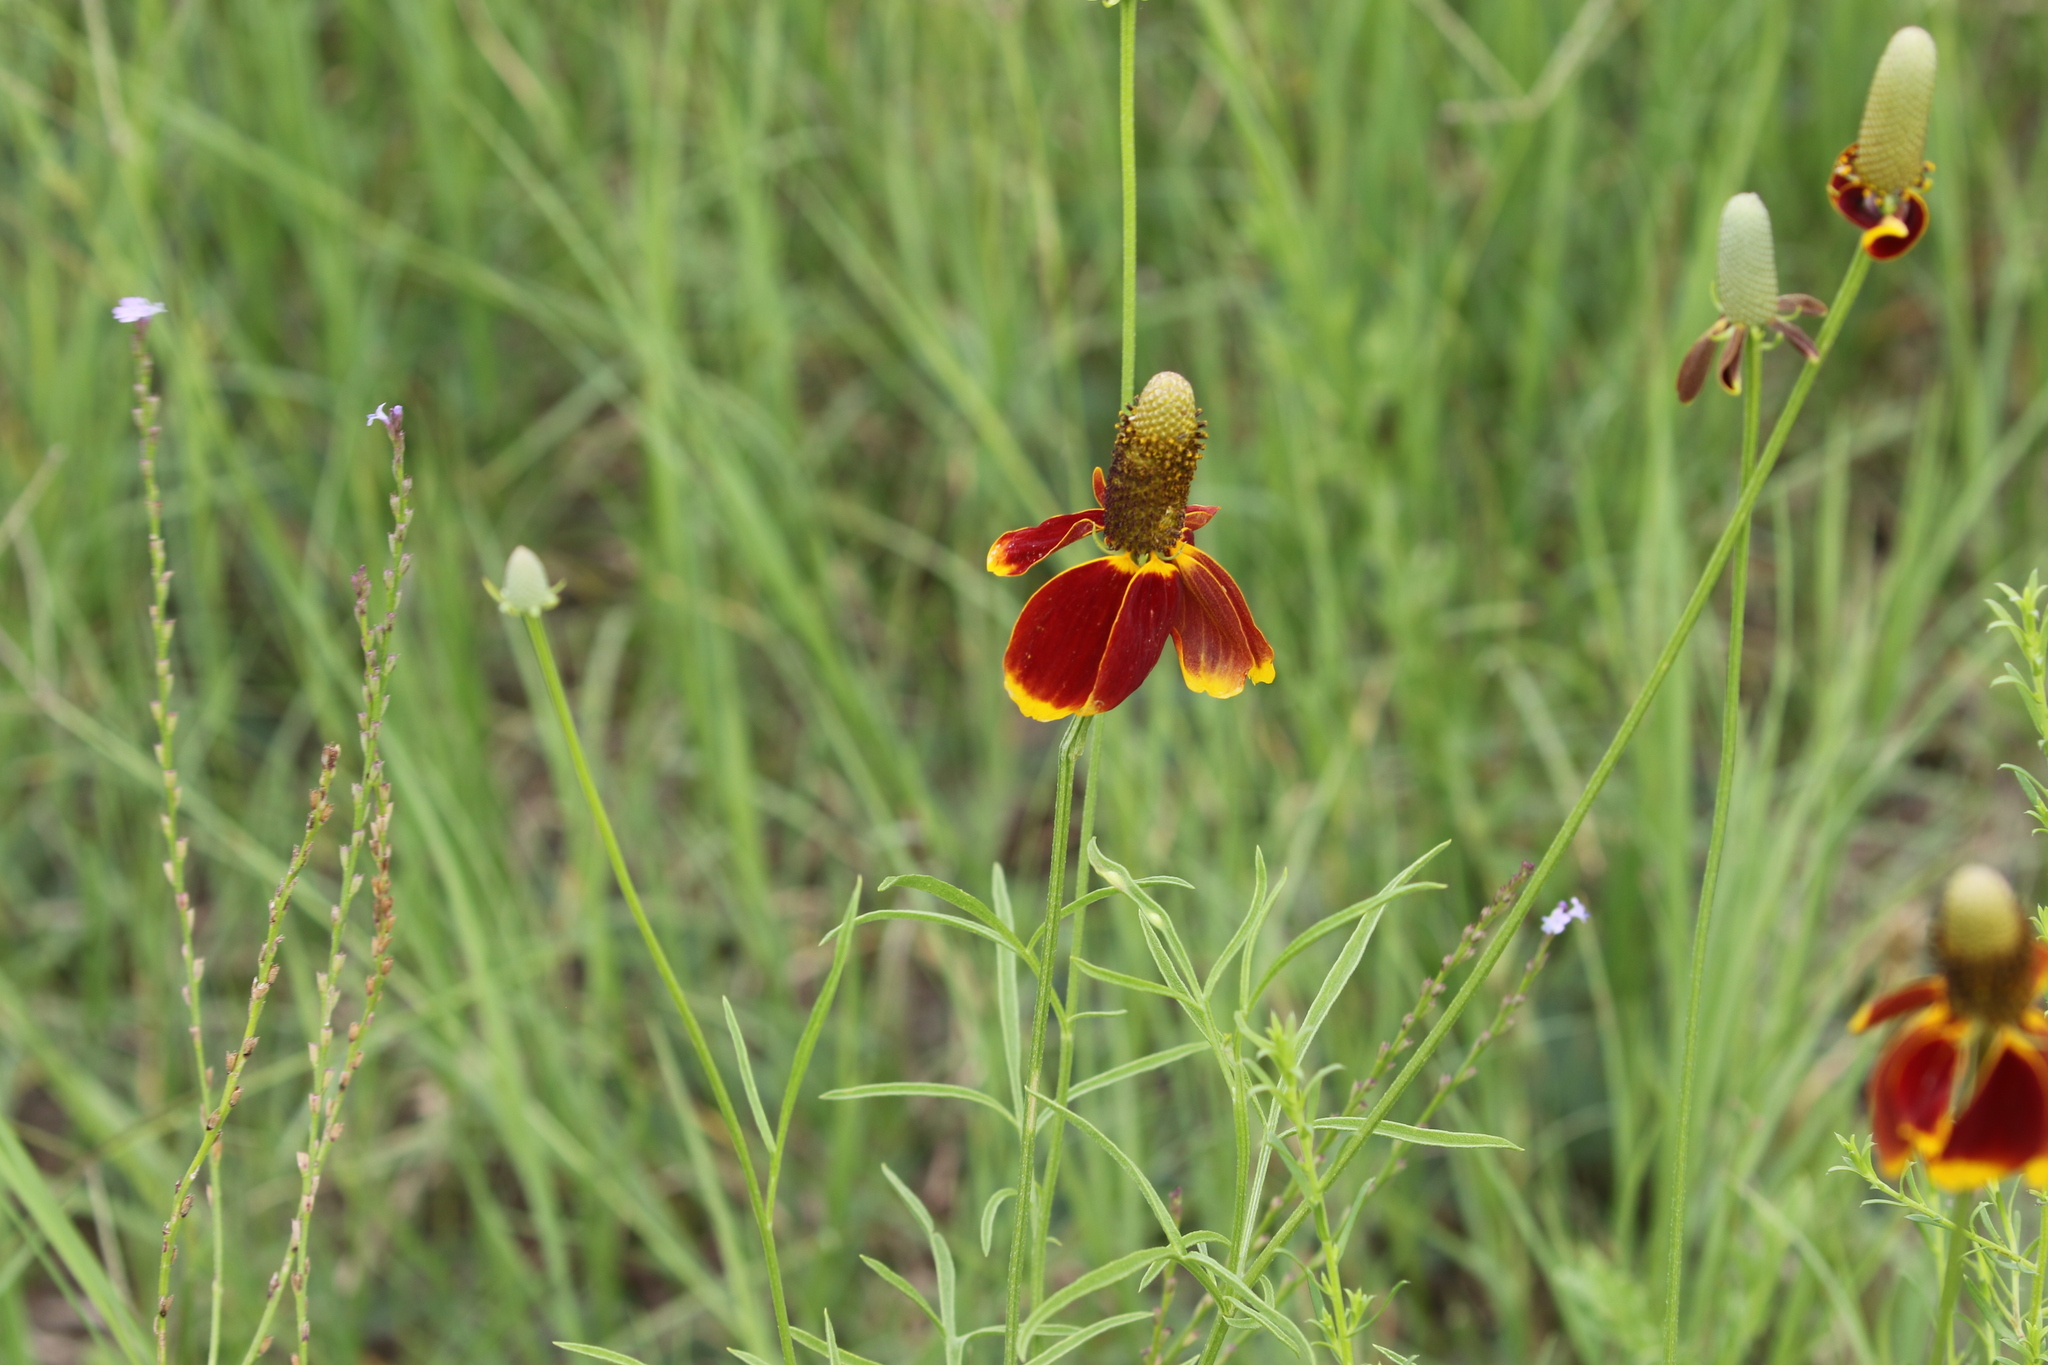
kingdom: Plantae
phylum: Tracheophyta
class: Magnoliopsida
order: Asterales
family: Asteraceae
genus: Ratibida
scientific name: Ratibida columnifera
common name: Prairie coneflower
